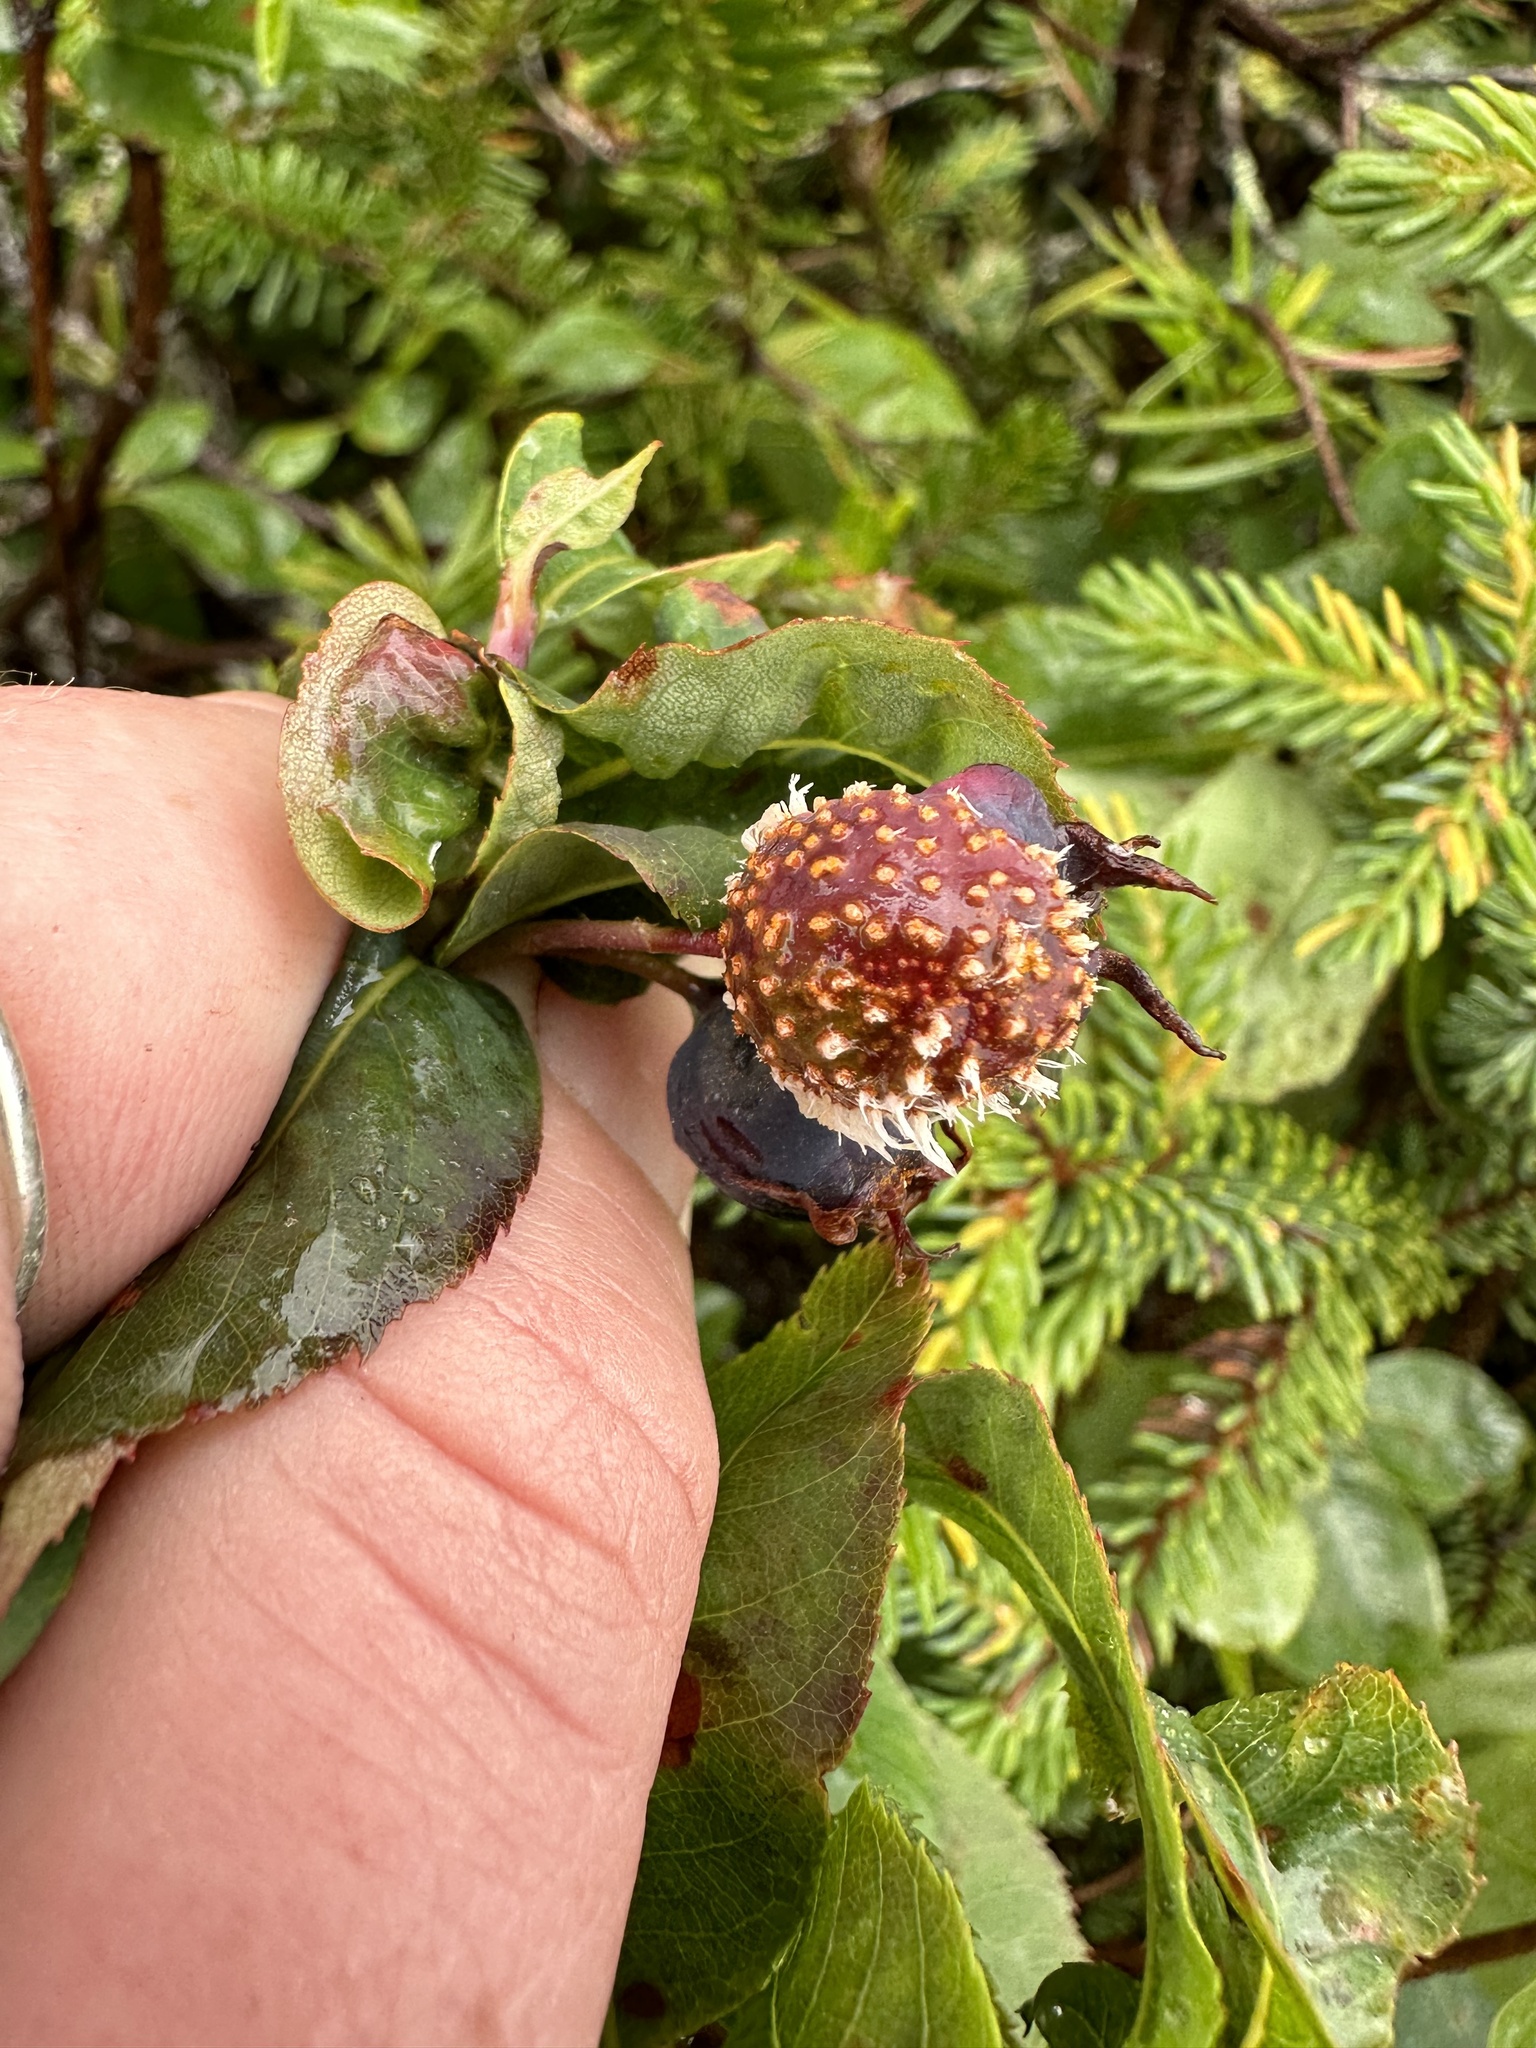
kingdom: Fungi
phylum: Basidiomycota
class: Pucciniomycetes
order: Pucciniales
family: Gymnosporangiaceae
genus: Gymnosporangium
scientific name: Gymnosporangium clavipes
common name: Quince rust
